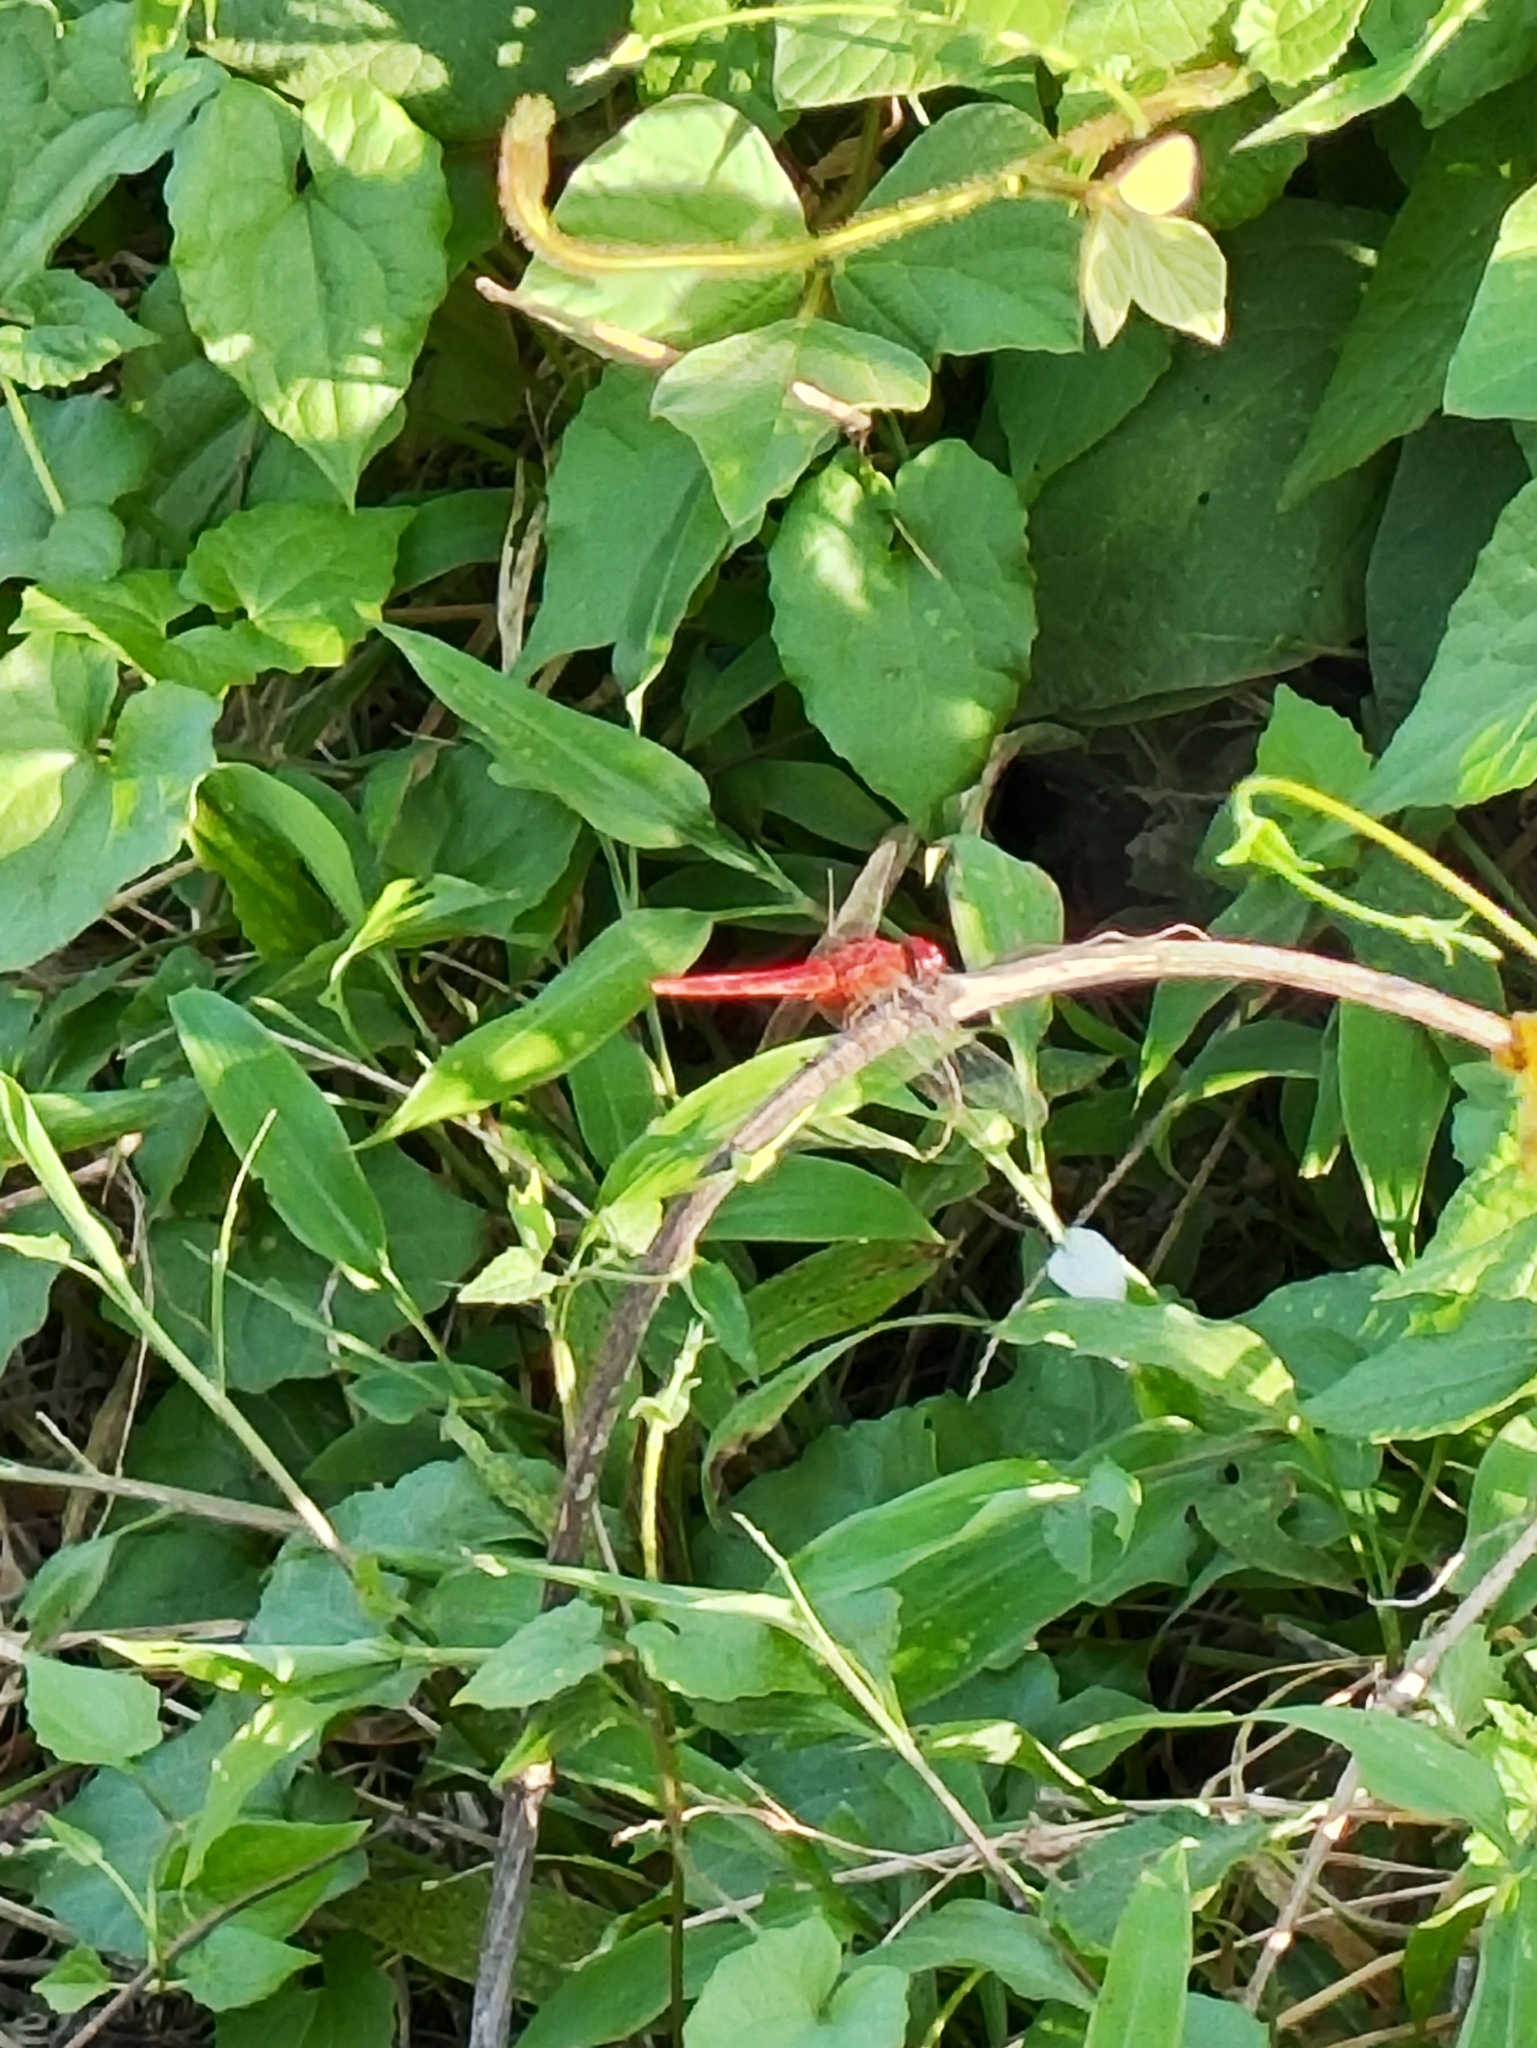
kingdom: Animalia
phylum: Arthropoda
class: Insecta
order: Odonata
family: Libellulidae
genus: Crocothemis
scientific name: Crocothemis servilia
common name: Scarlet skimmer
